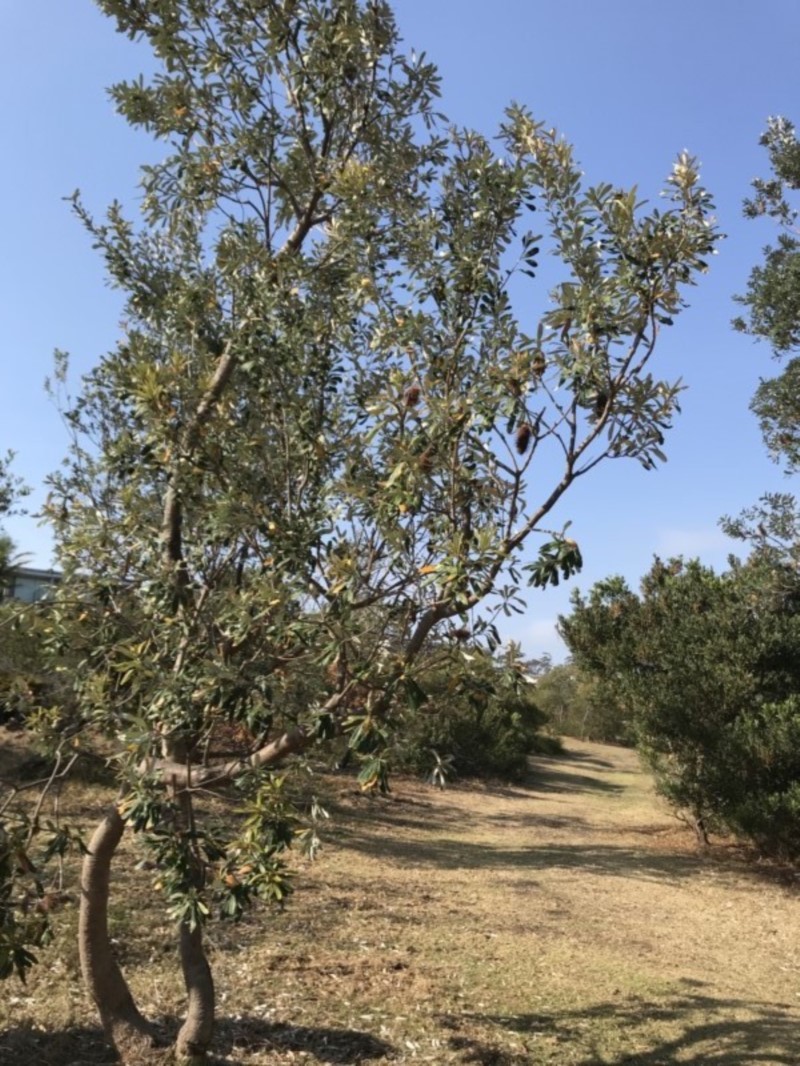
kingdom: Plantae
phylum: Tracheophyta
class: Magnoliopsida
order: Proteales
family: Proteaceae
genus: Banksia
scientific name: Banksia integrifolia
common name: White-honeysuckle
